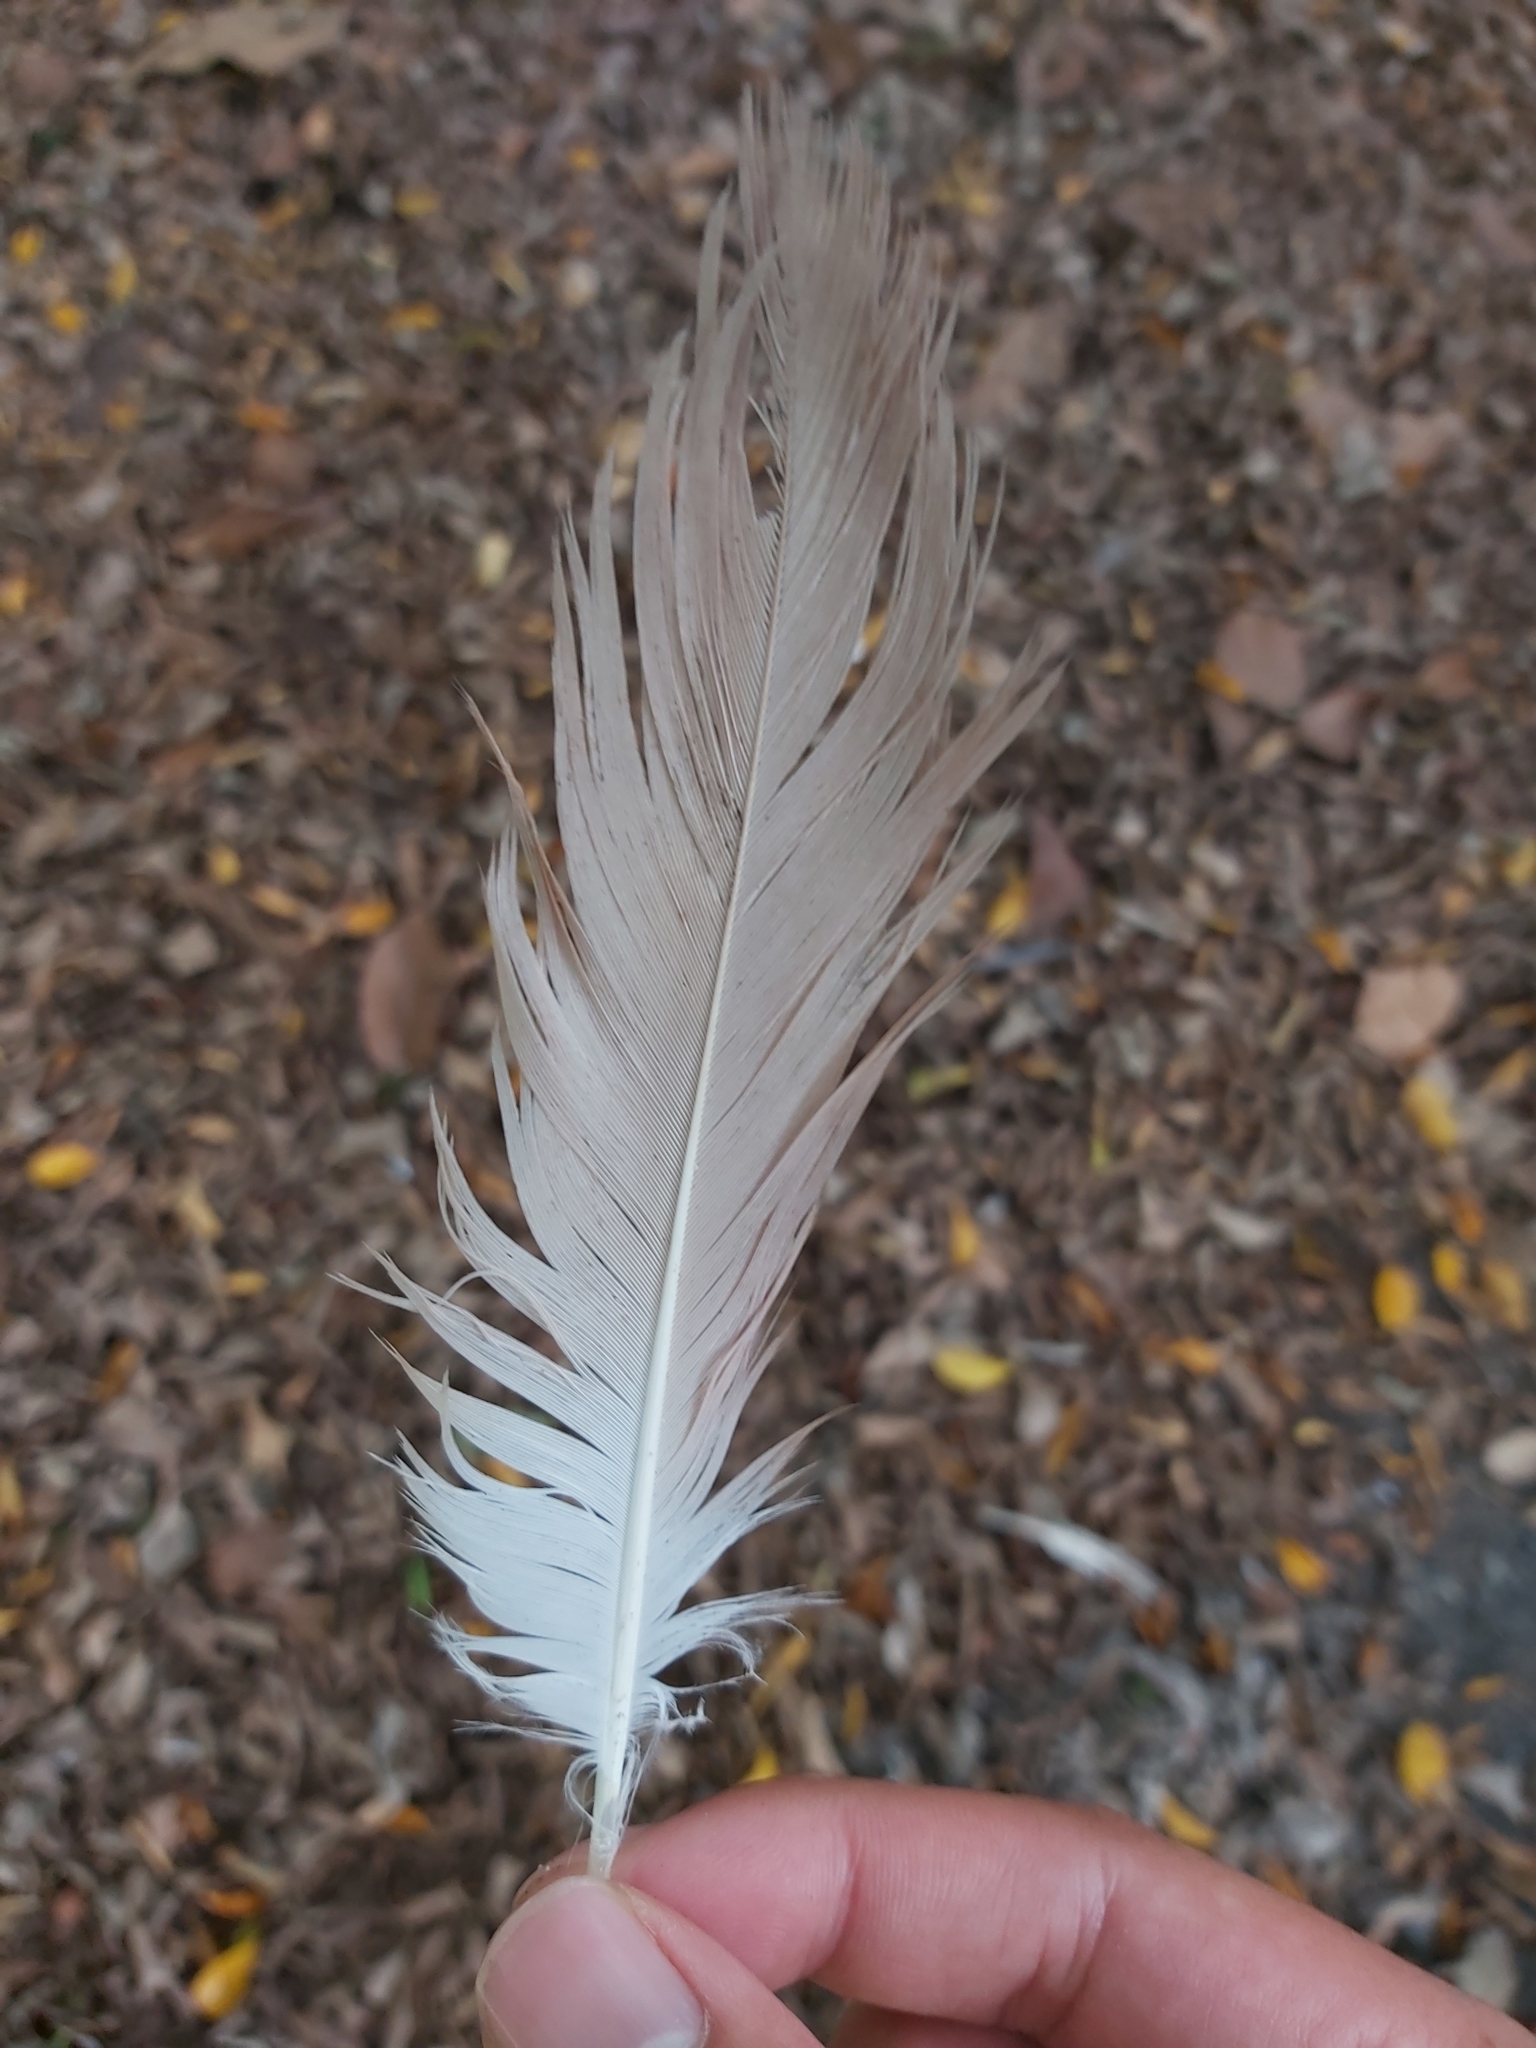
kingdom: Animalia
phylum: Chordata
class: Aves
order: Pelecaniformes
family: Ardeidae
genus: Nycticorax
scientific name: Nycticorax caledonicus
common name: Rufous night-heron
